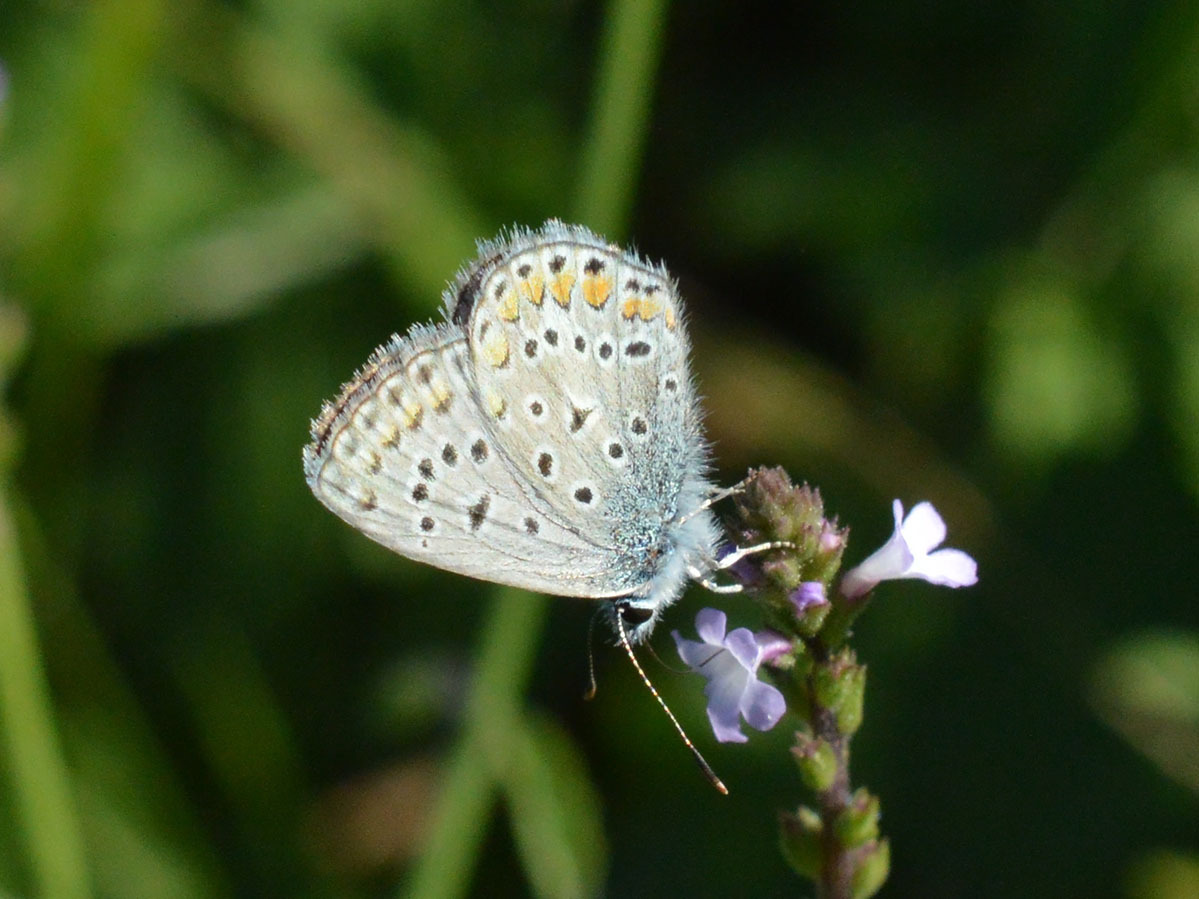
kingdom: Animalia
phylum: Arthropoda
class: Insecta
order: Lepidoptera
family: Lycaenidae
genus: Polyommatus
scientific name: Polyommatus icarus
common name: Common blue
